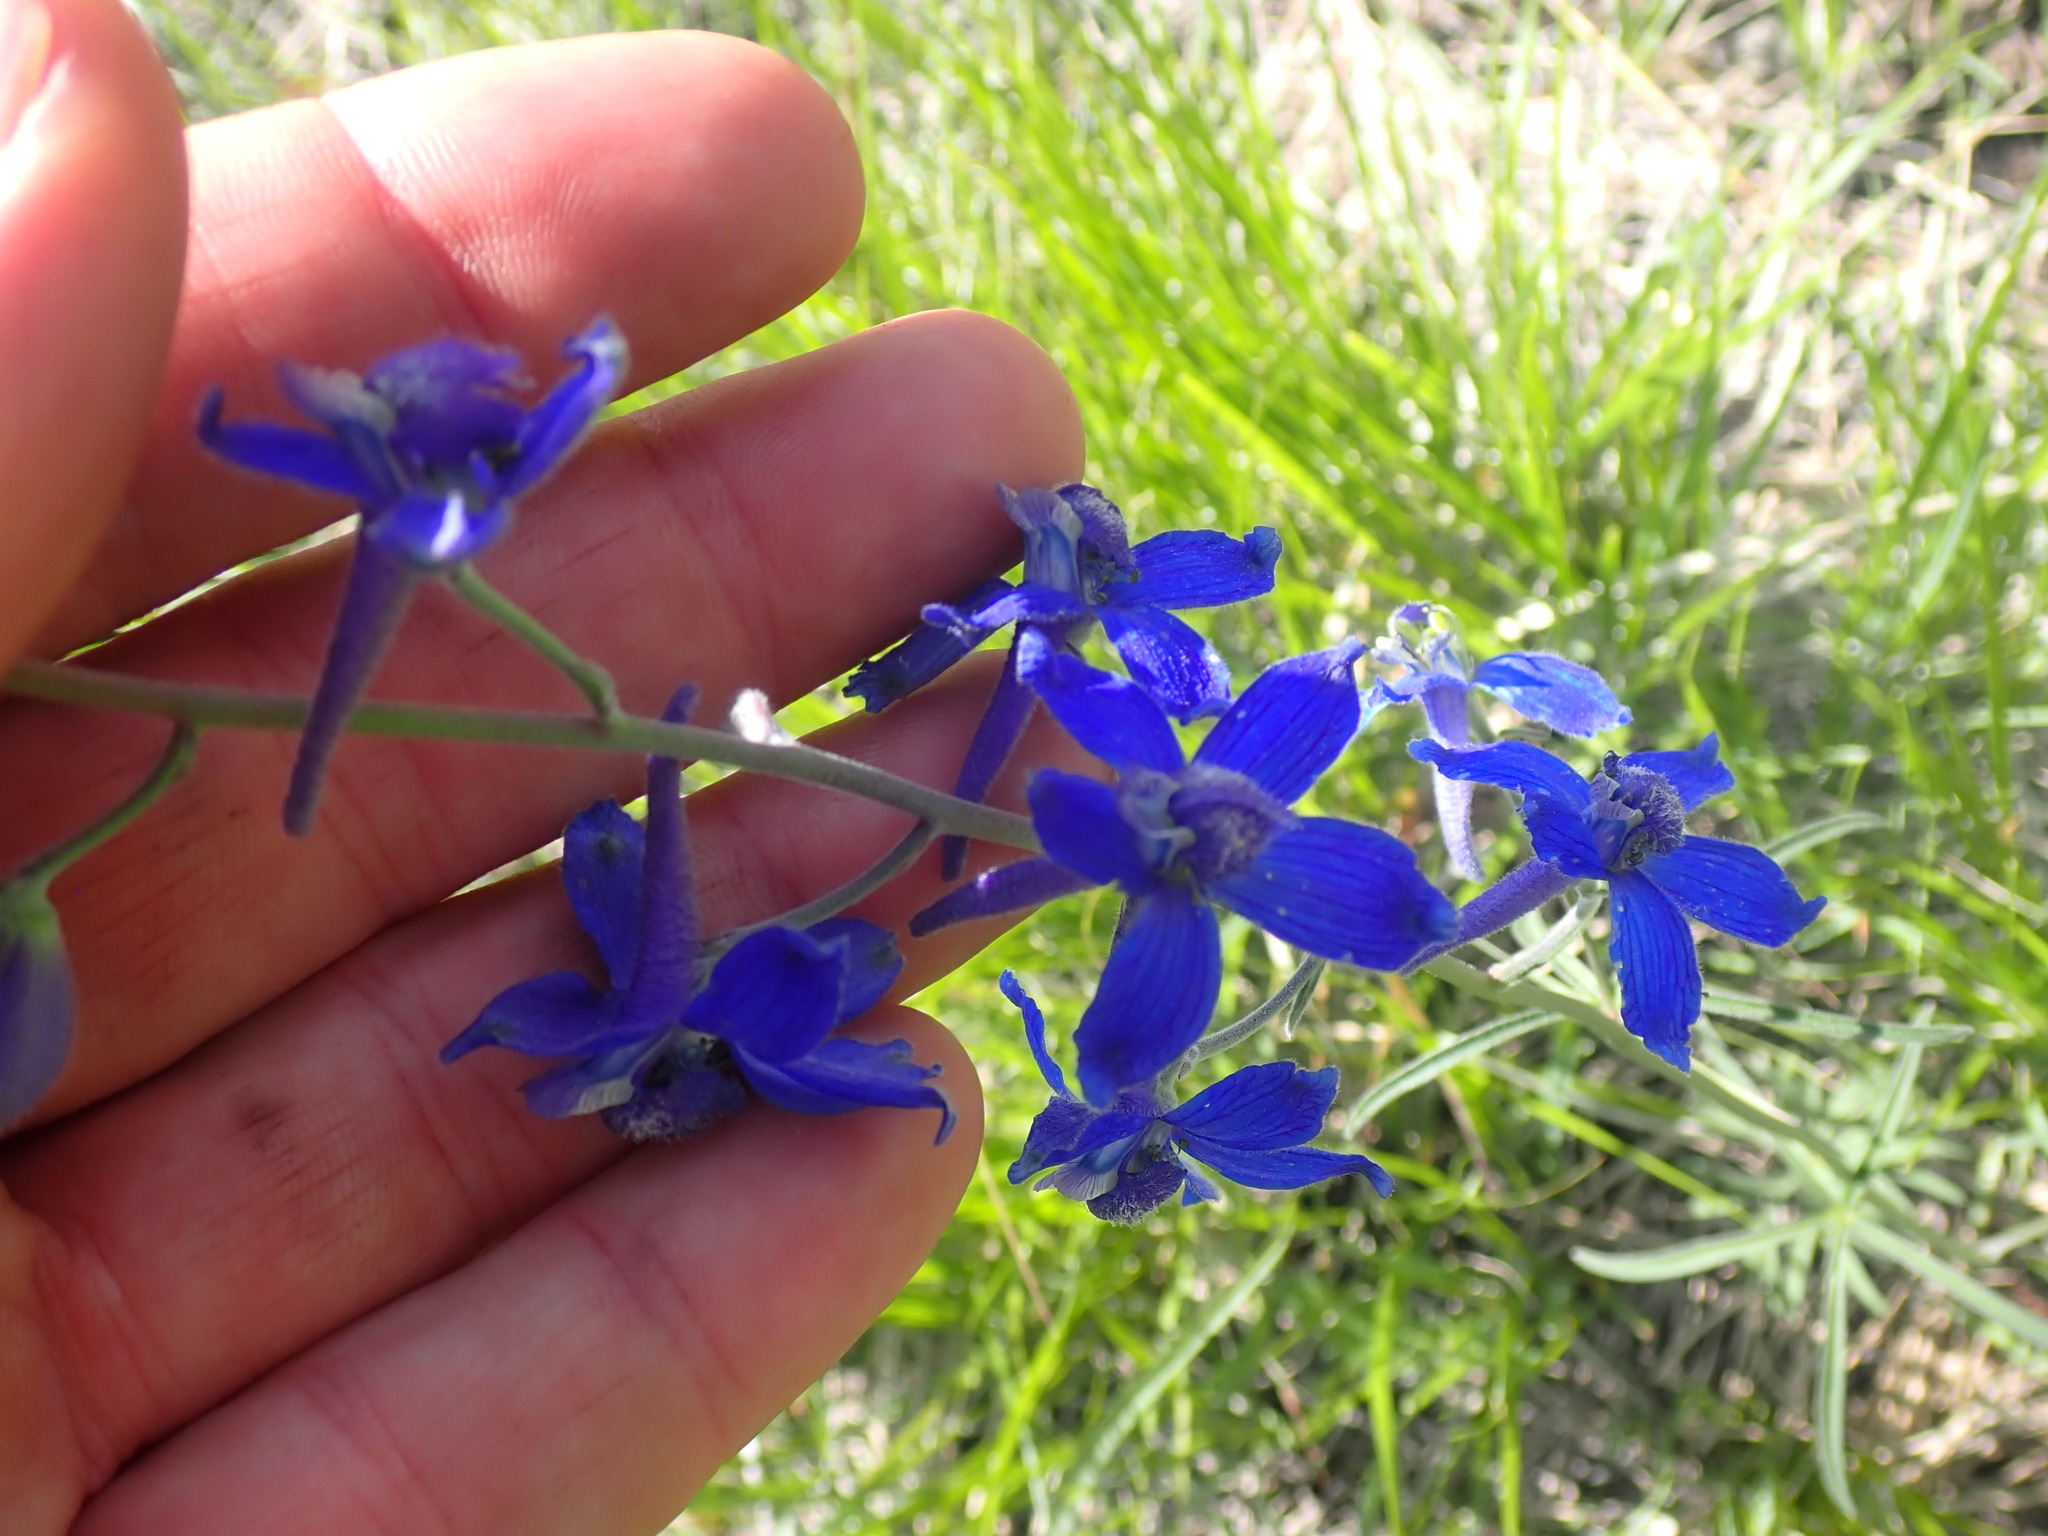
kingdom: Plantae
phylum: Tracheophyta
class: Magnoliopsida
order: Ranunculales
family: Ranunculaceae
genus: Delphinium
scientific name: Delphinium nuttallianum
